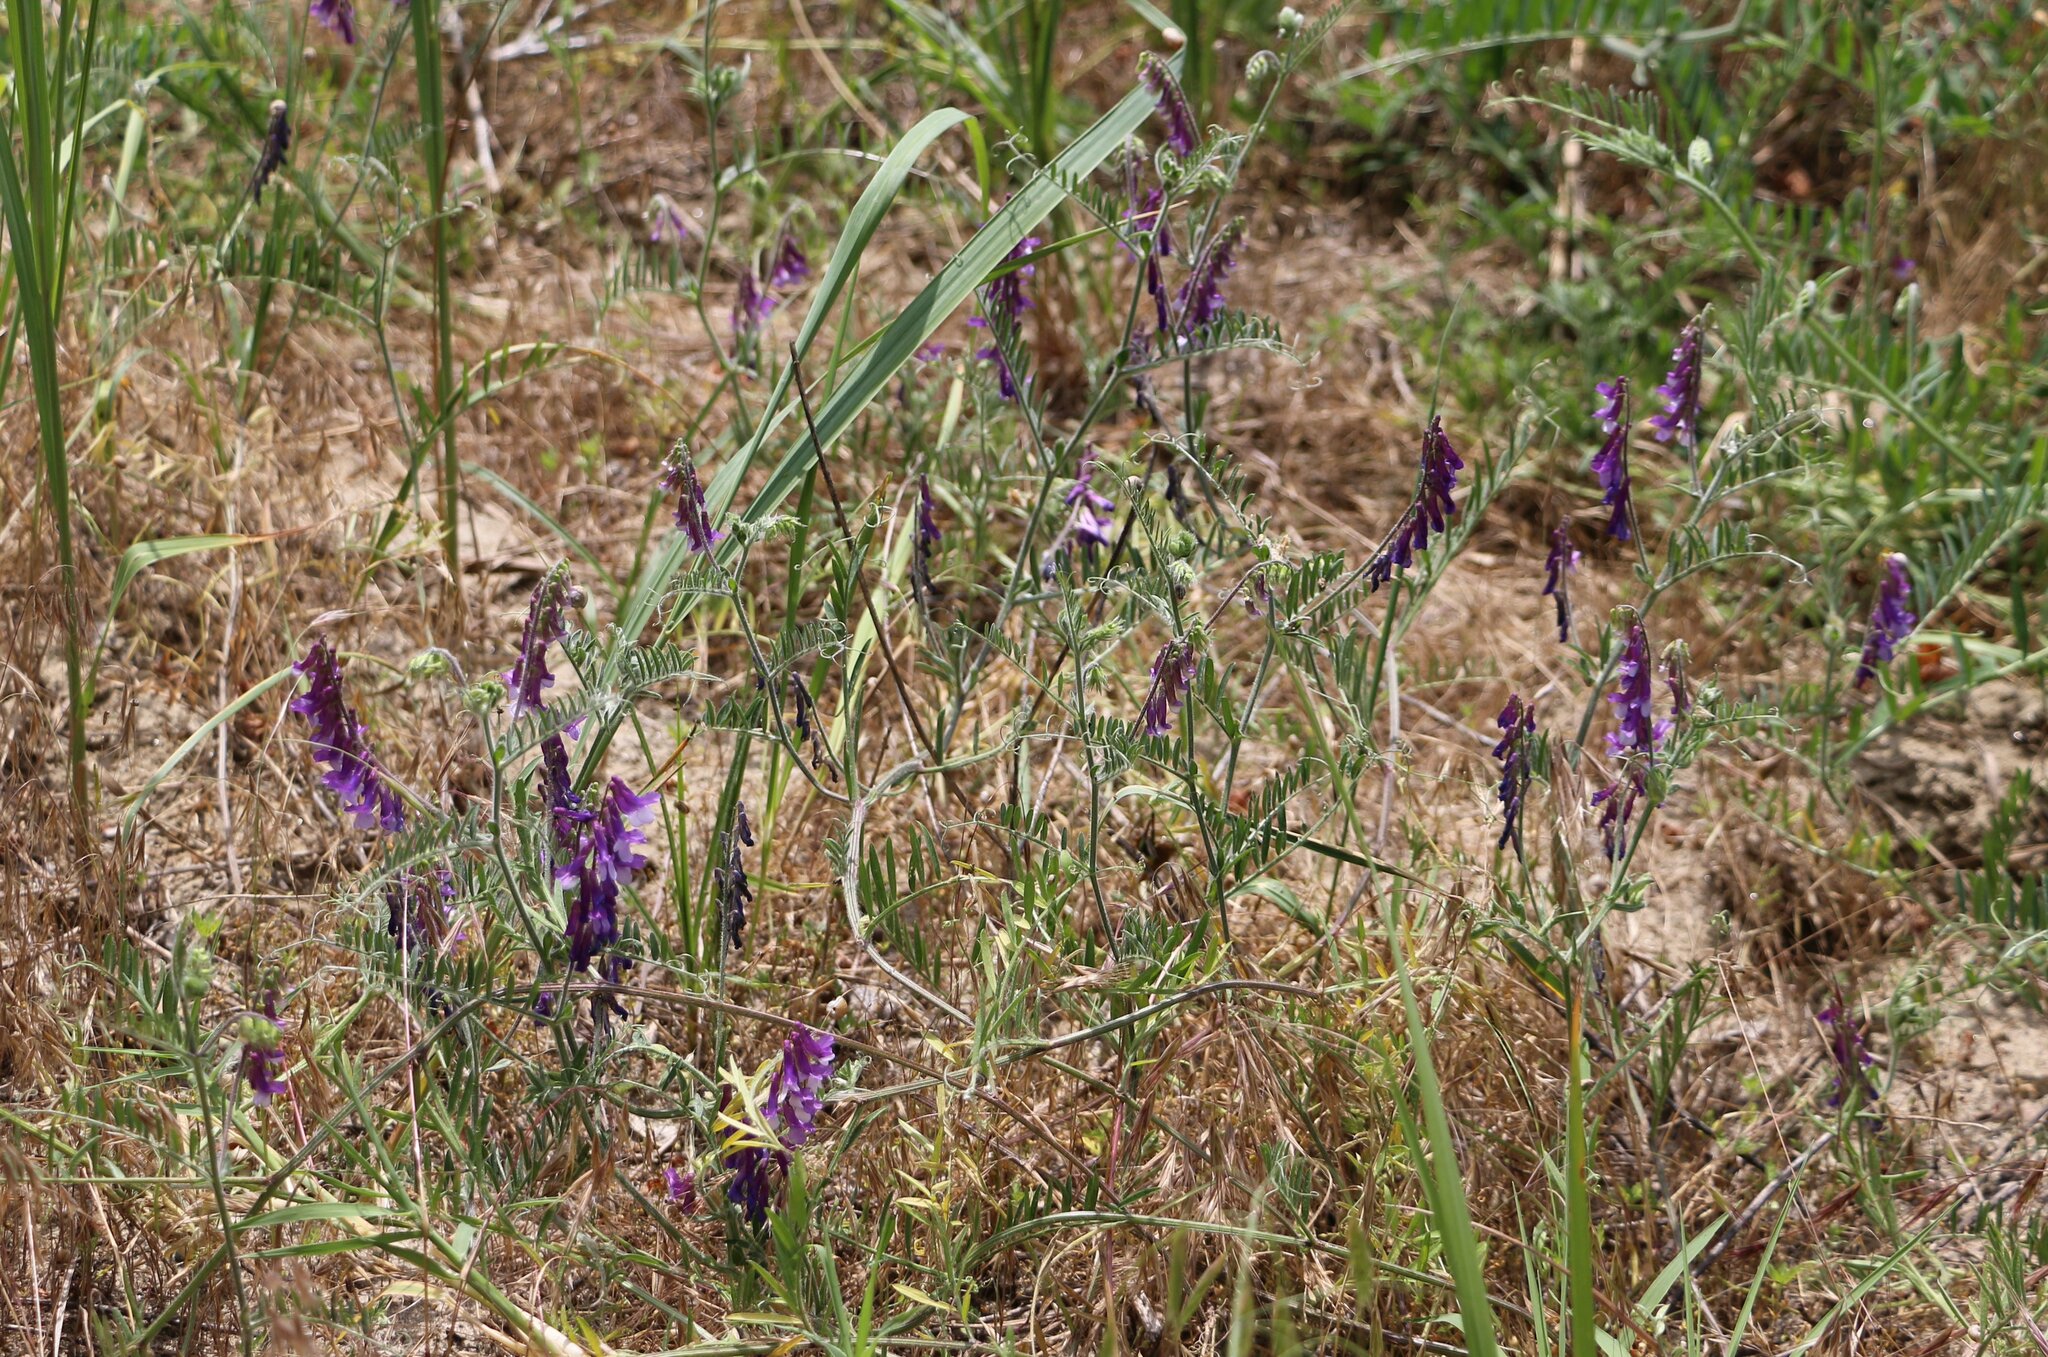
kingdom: Plantae
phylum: Tracheophyta
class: Magnoliopsida
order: Fabales
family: Fabaceae
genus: Vicia
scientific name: Vicia villosa
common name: Fodder vetch
